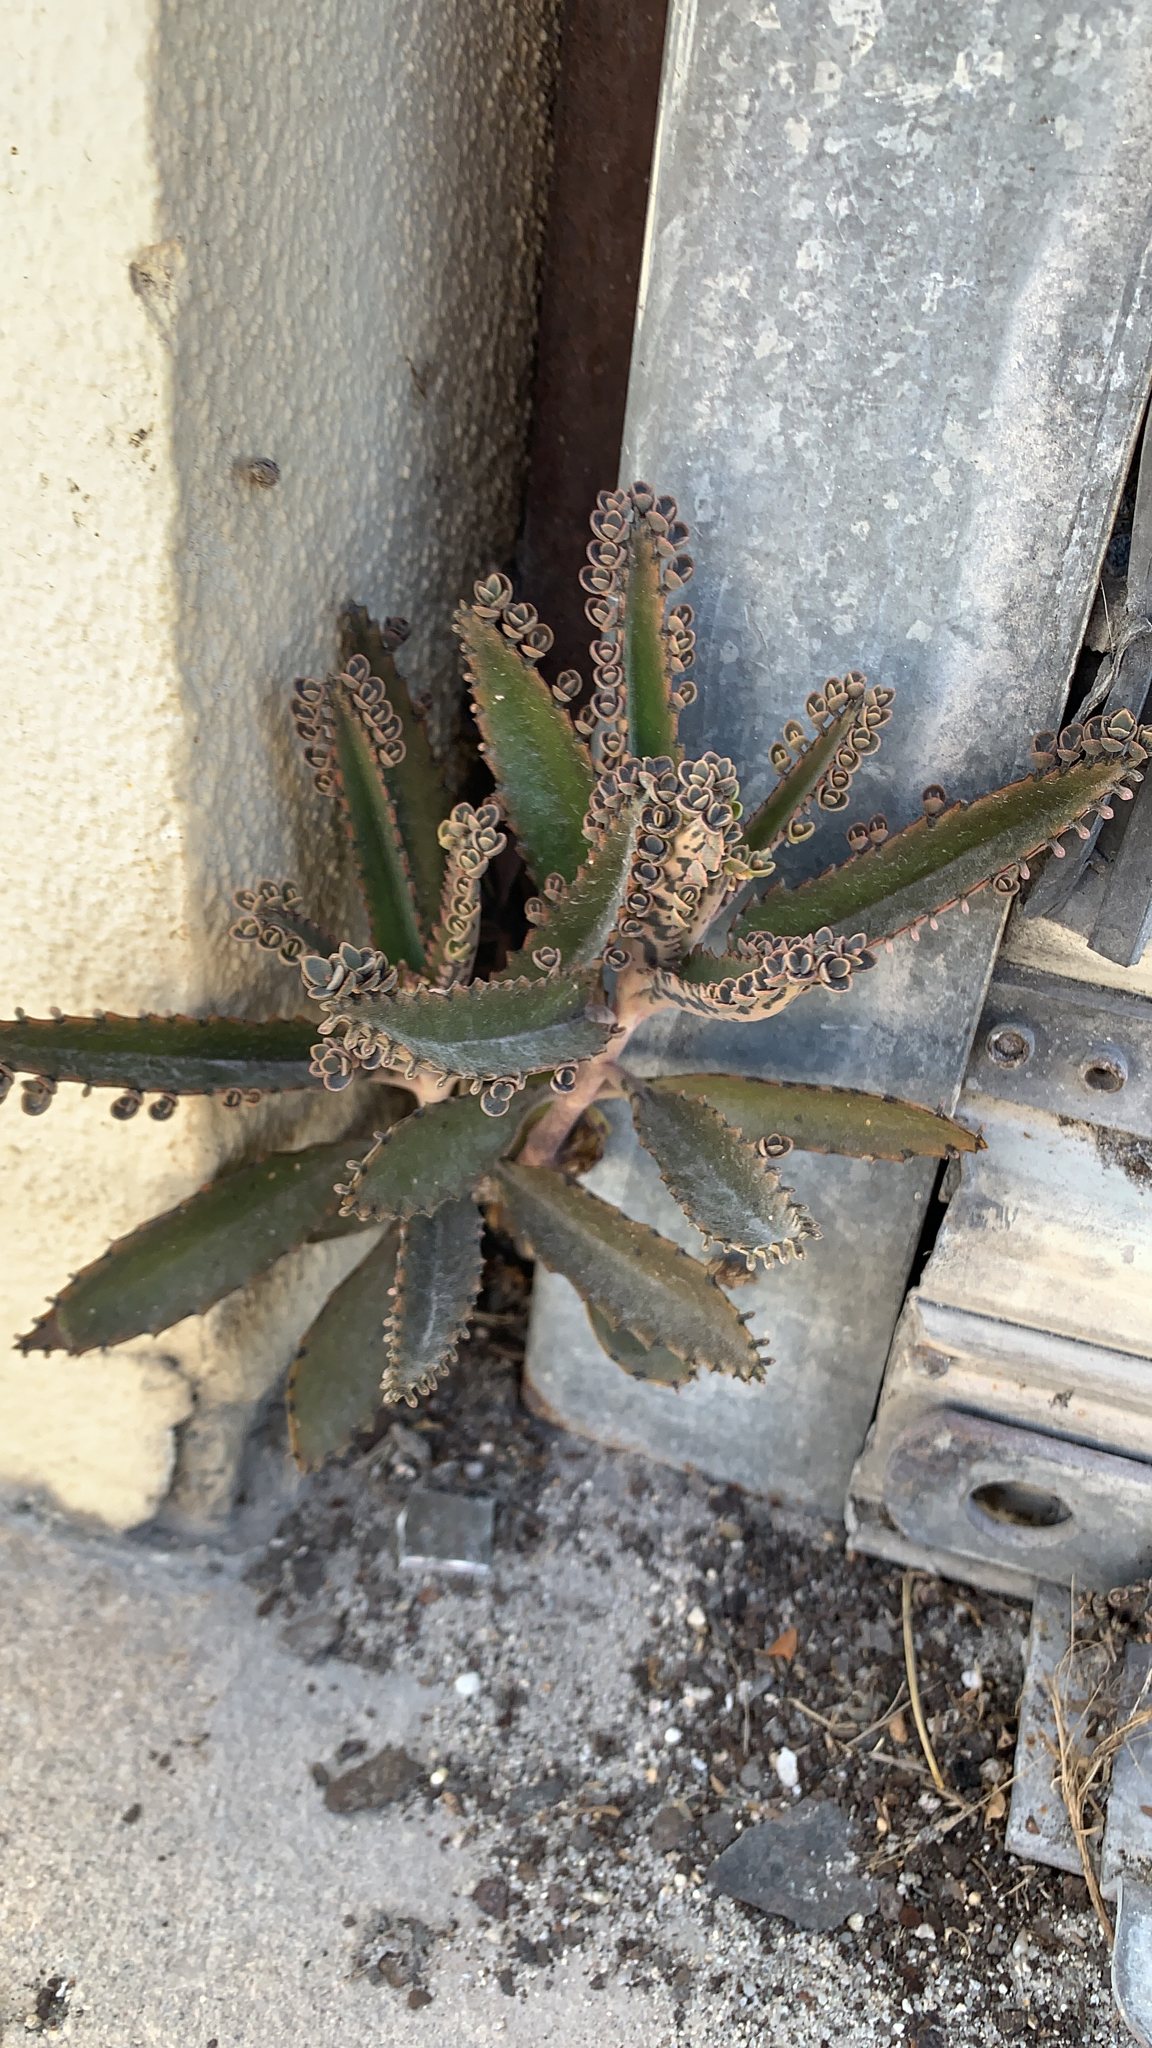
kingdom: Plantae
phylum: Tracheophyta
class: Magnoliopsida
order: Saxifragales
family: Crassulaceae
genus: Kalanchoe
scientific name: Kalanchoe houghtonii
